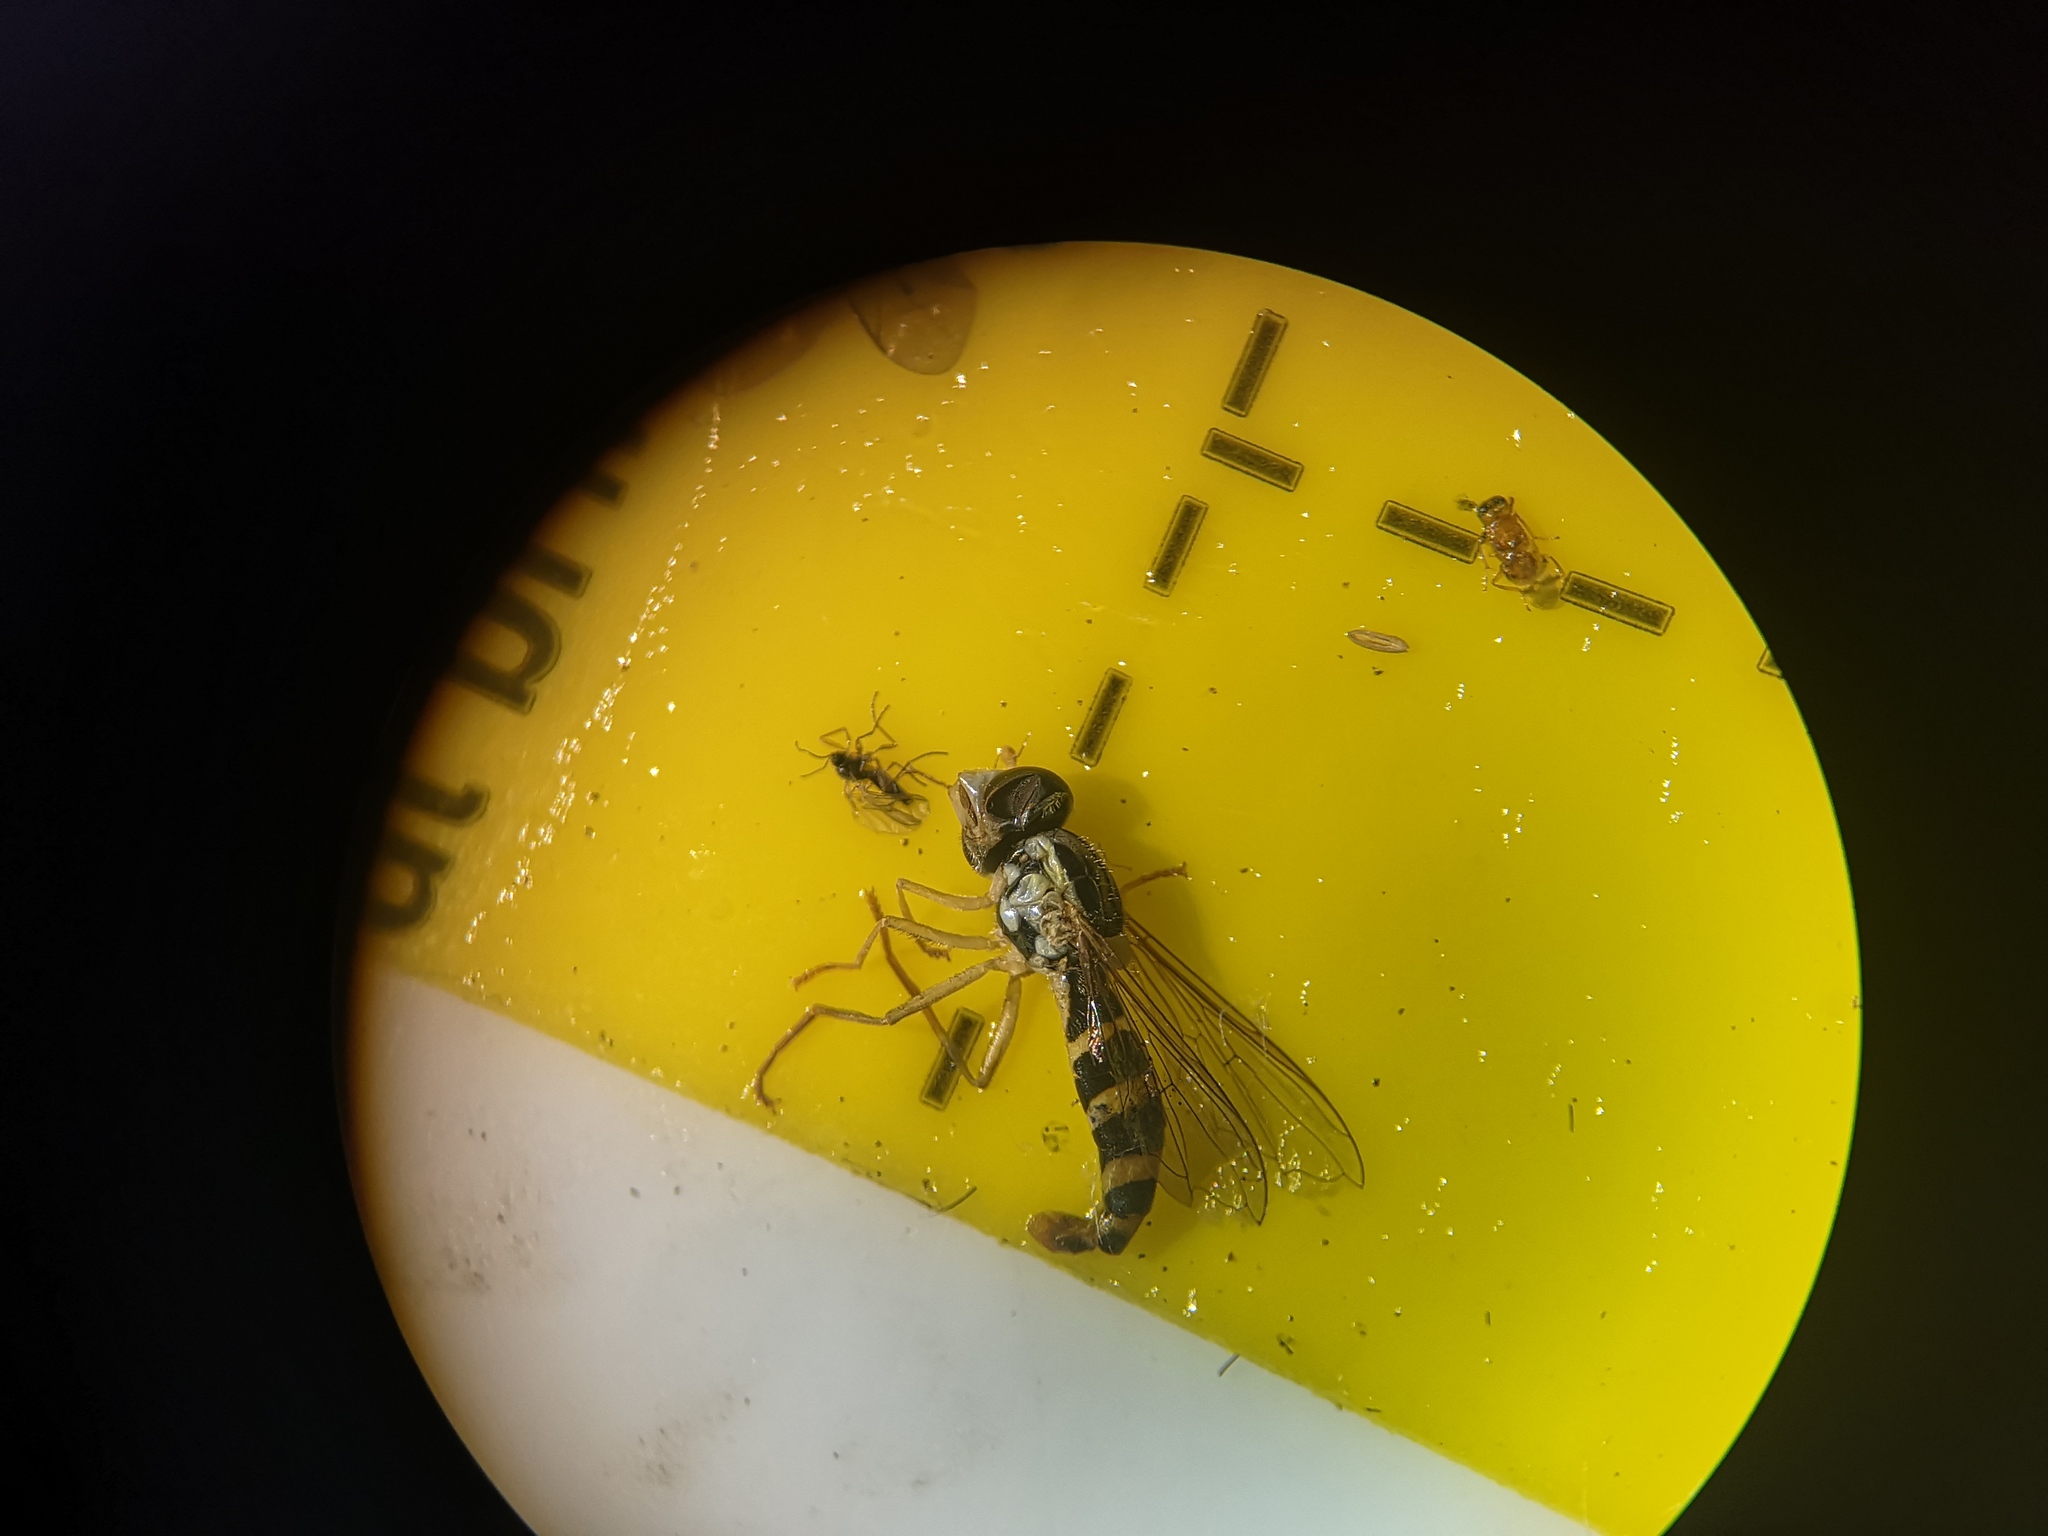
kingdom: Animalia
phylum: Arthropoda
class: Insecta
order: Diptera
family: Syrphidae
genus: Sphaerophoria
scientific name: Sphaerophoria
